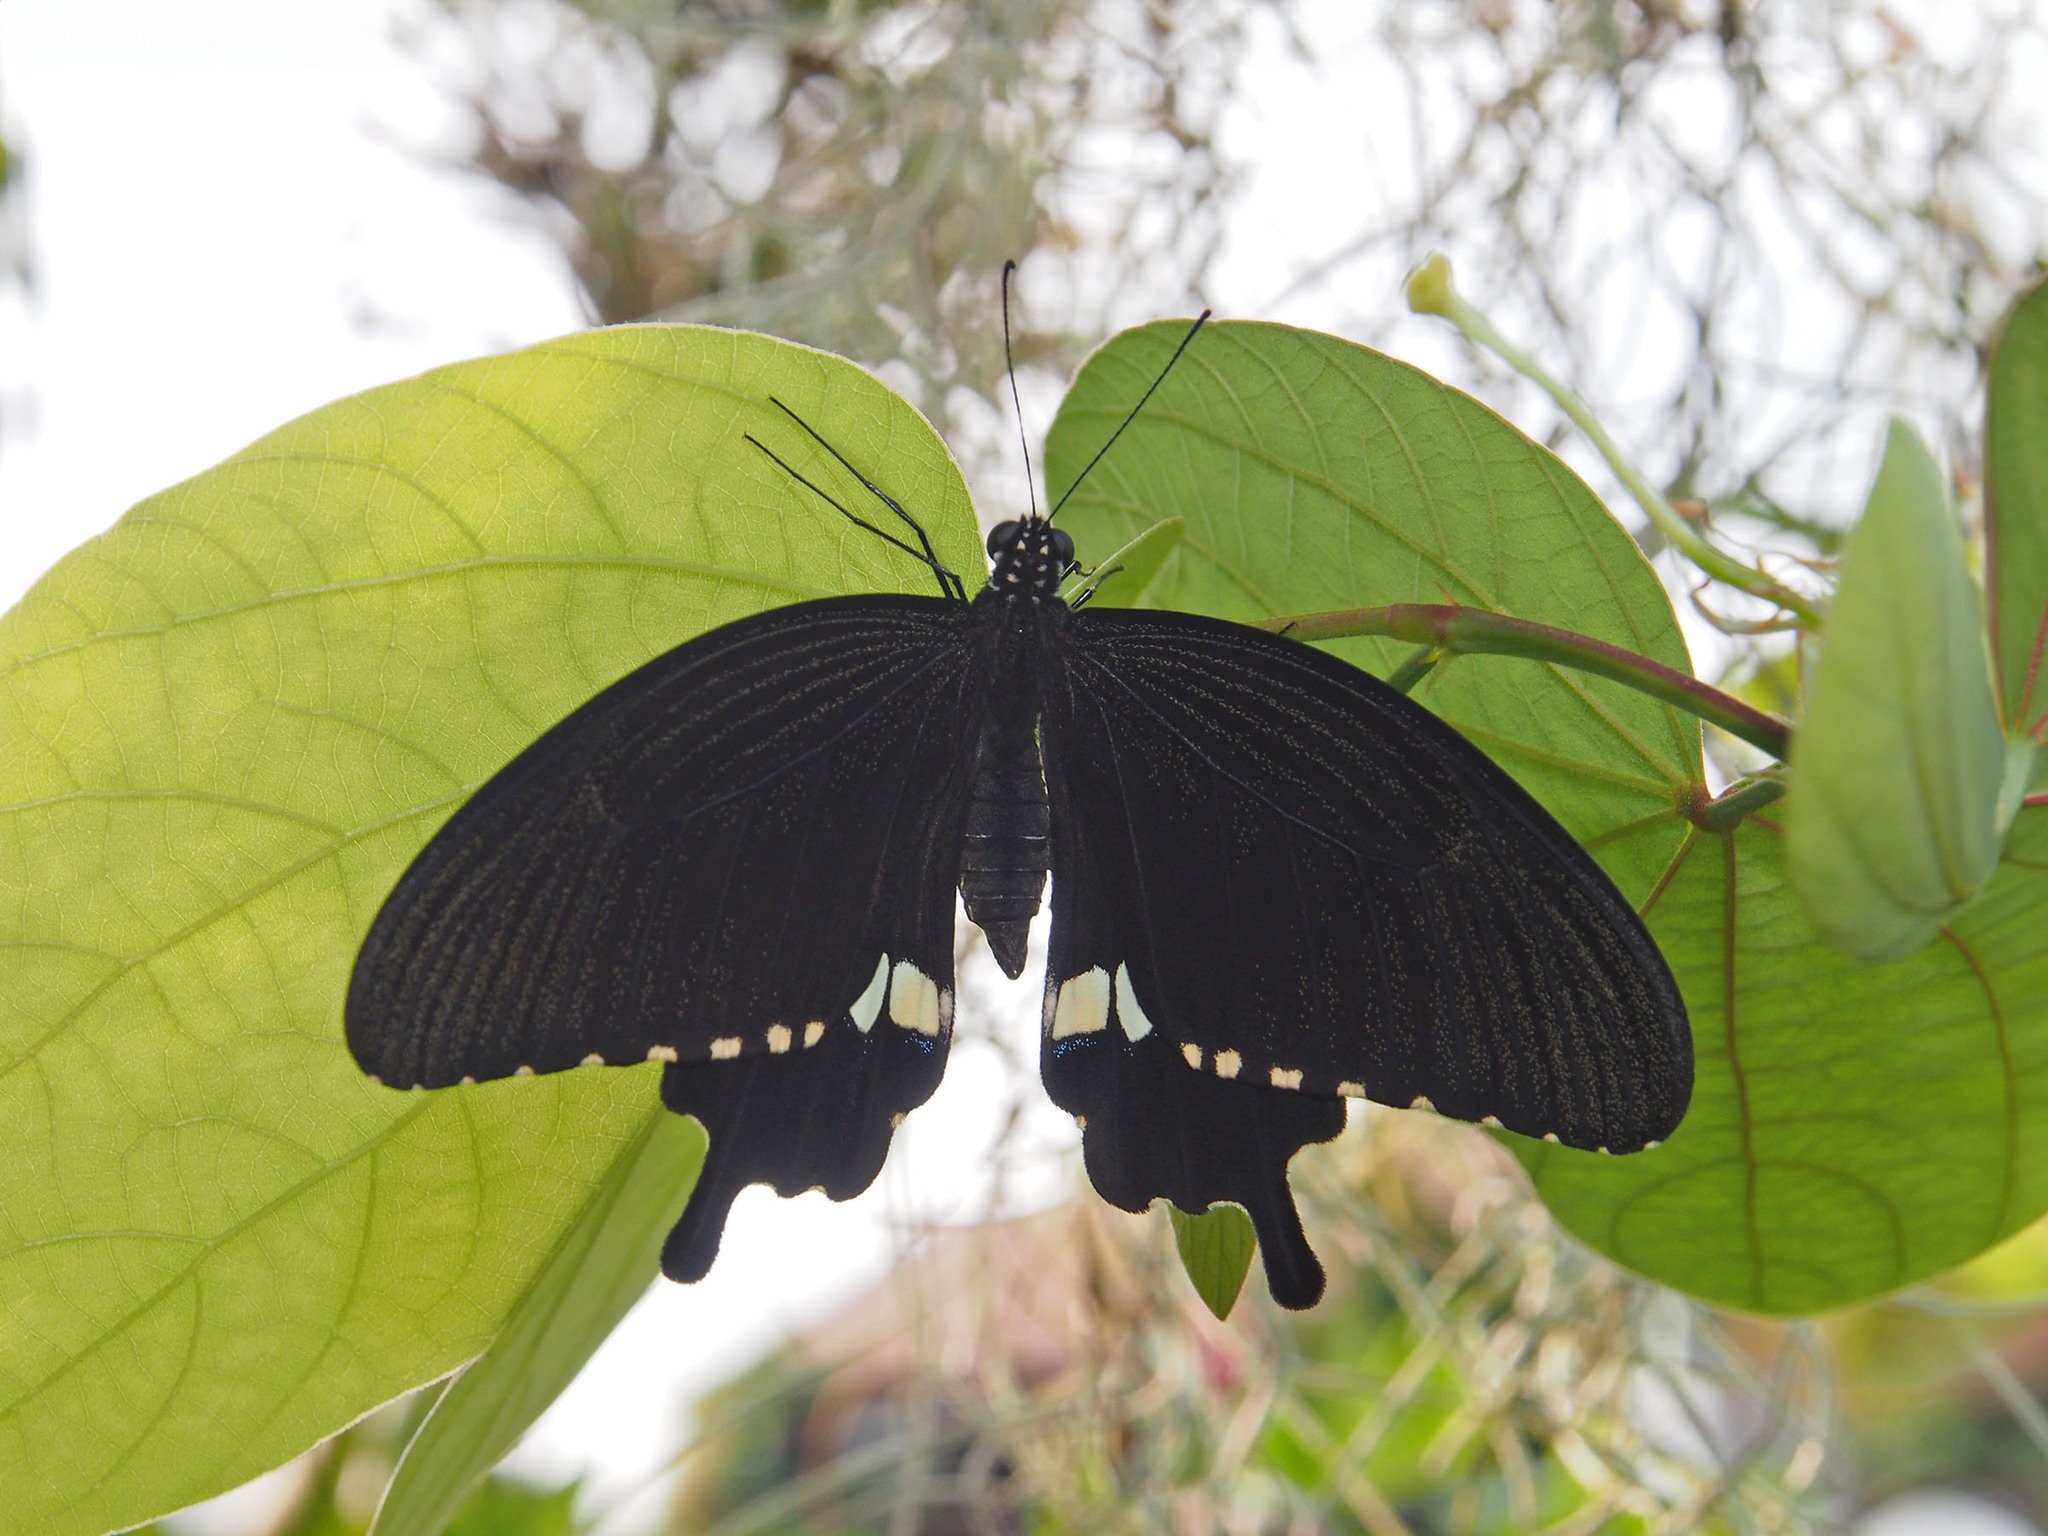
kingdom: Animalia
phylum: Arthropoda
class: Insecta
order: Lepidoptera
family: Papilionidae
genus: Papilio
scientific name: Papilio polytes
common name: Common mormon
